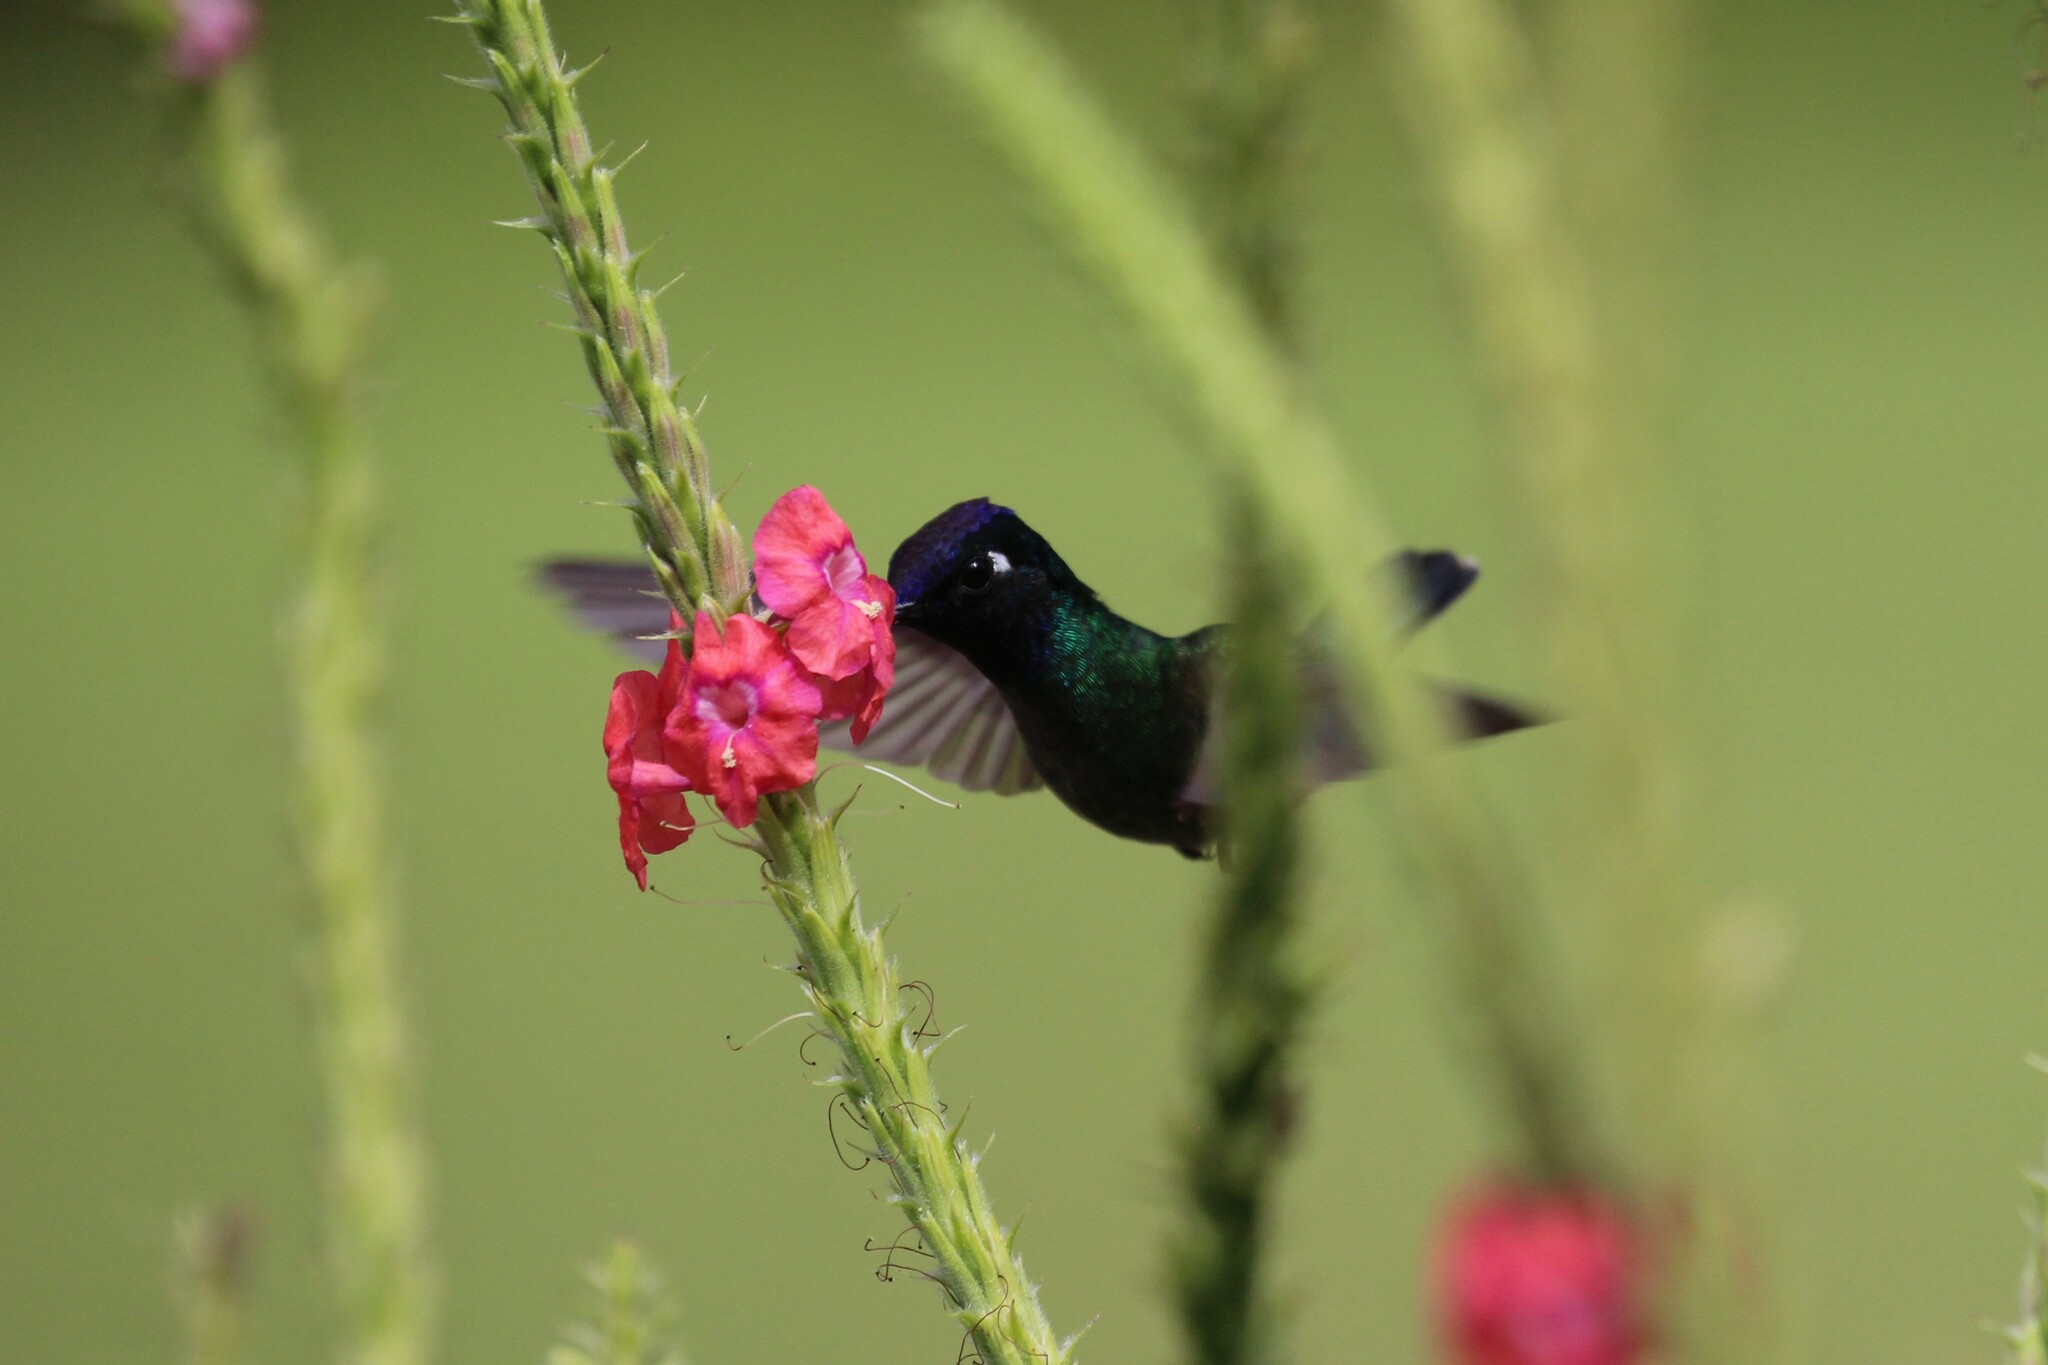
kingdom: Animalia
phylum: Chordata
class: Aves
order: Apodiformes
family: Trochilidae
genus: Klais
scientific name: Klais guimeti
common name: Violet-headed hummingbird
